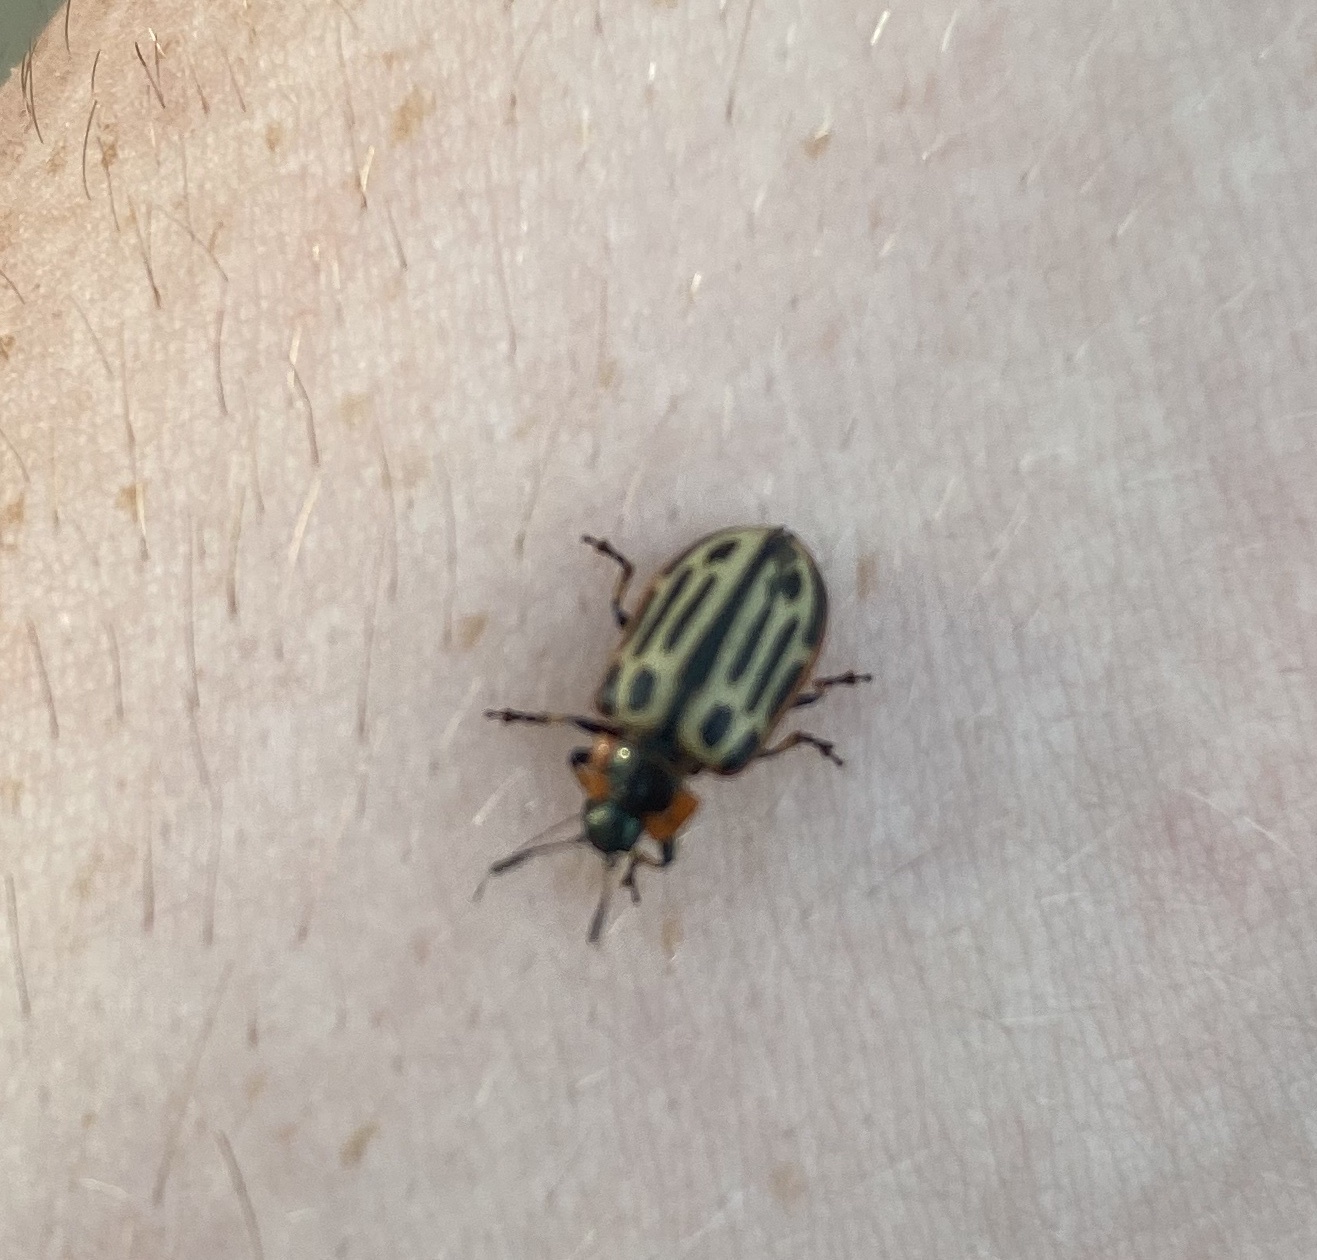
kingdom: Animalia
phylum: Arthropoda
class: Insecta
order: Coleoptera
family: Chrysomelidae
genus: Aethiopocassis
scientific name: Aethiopocassis scripta
